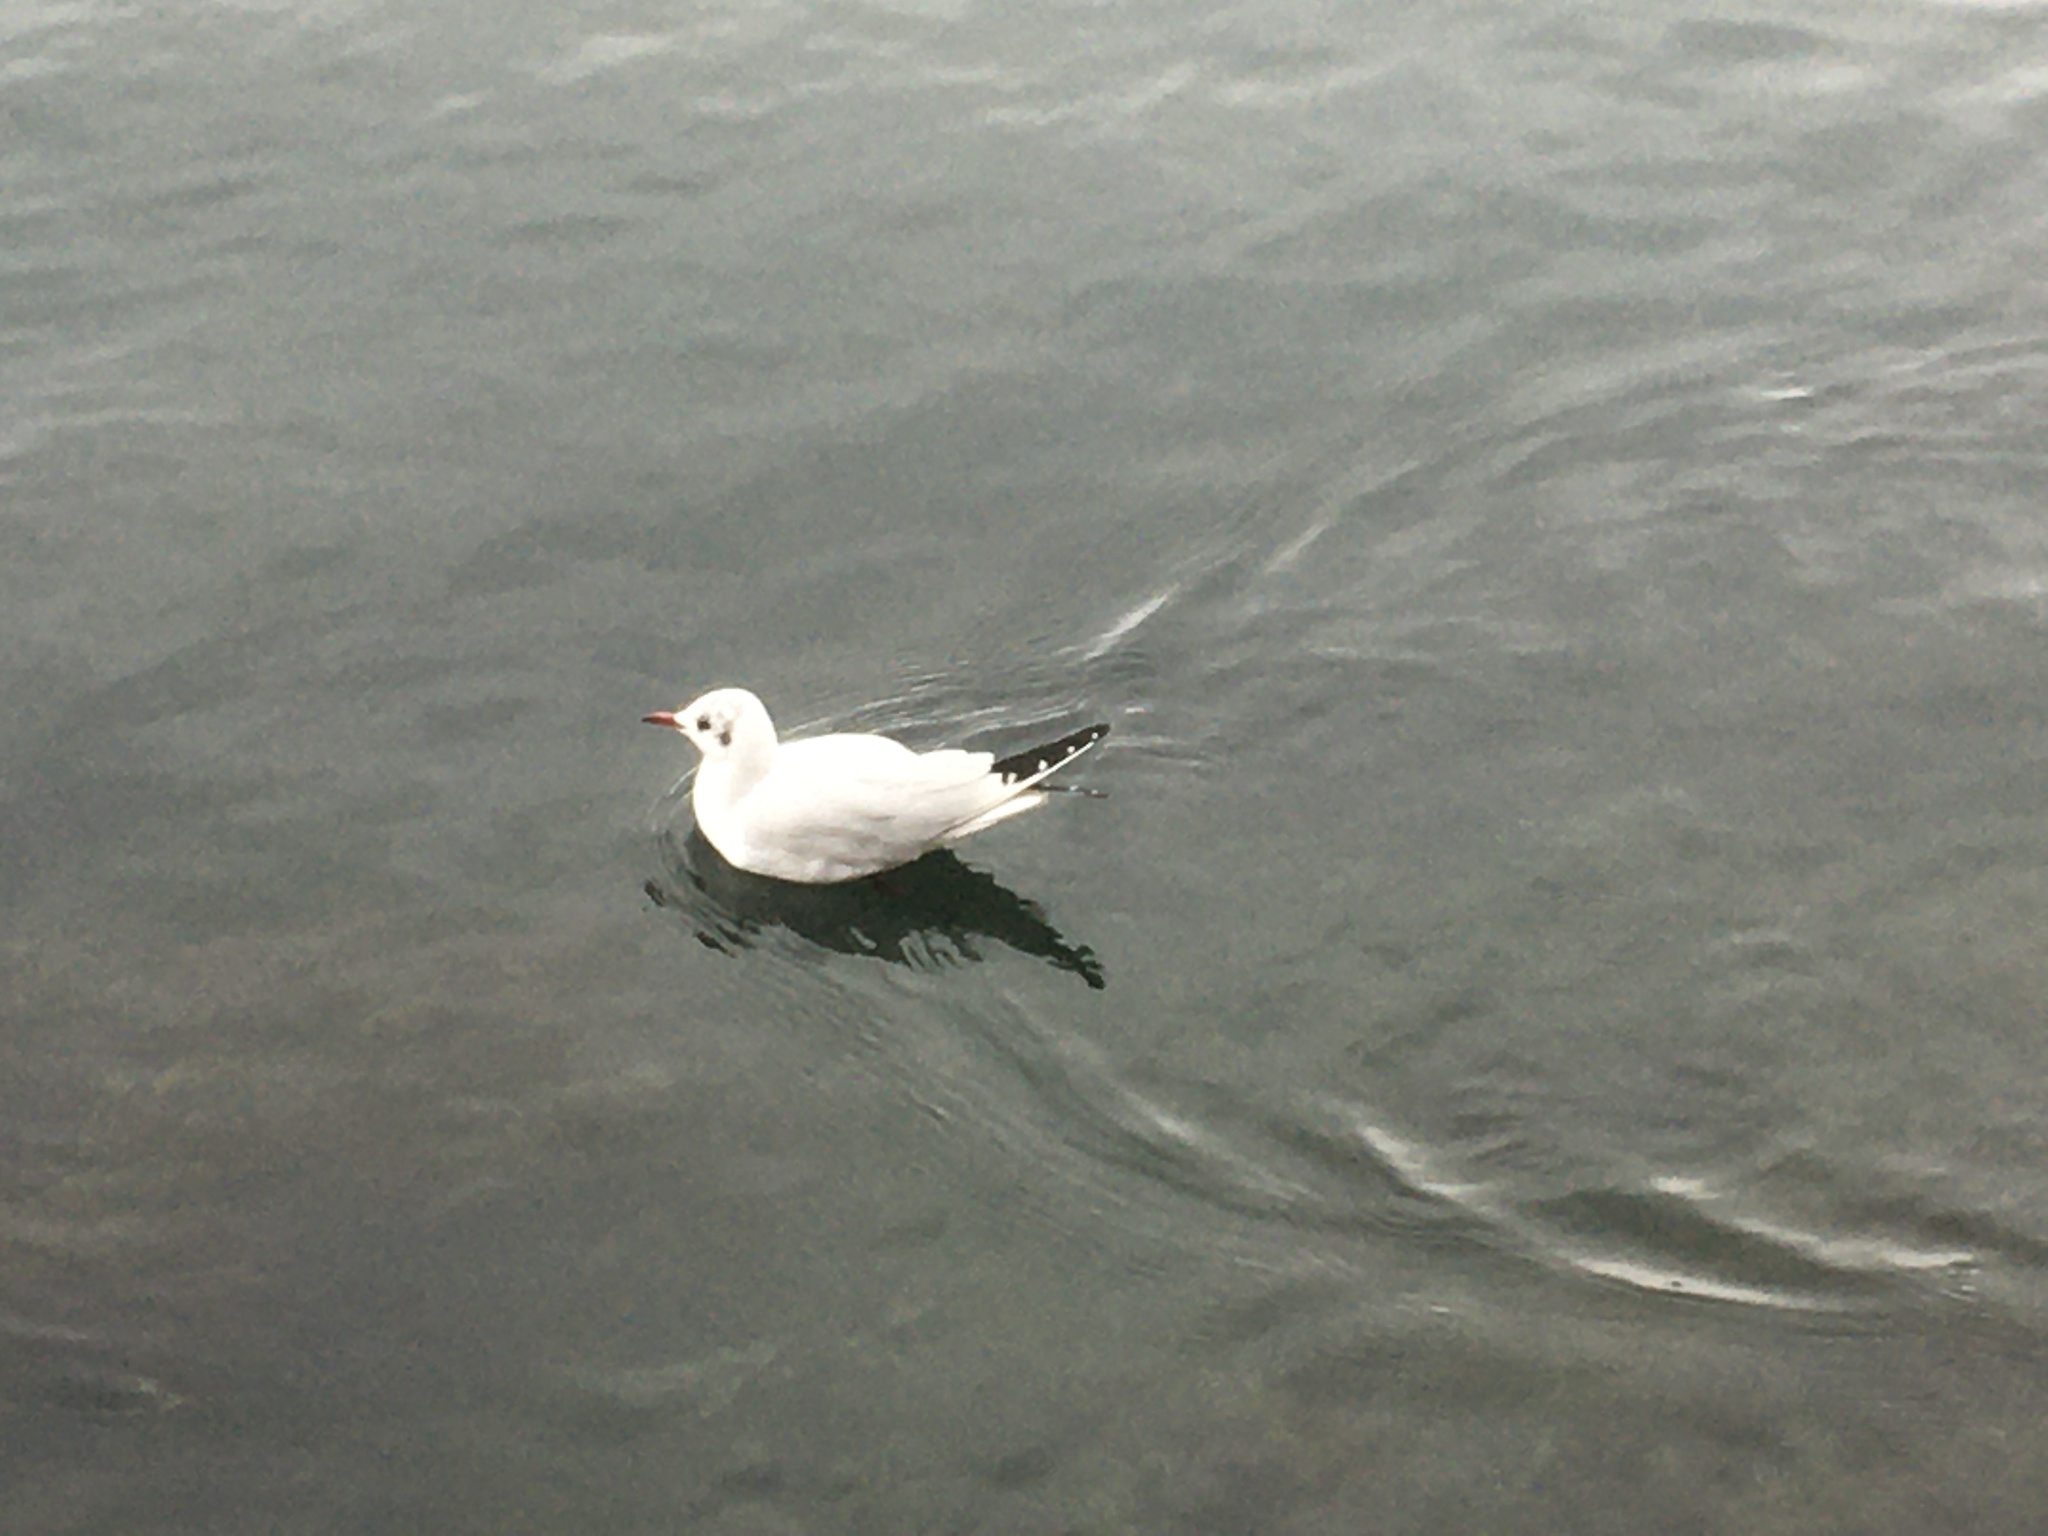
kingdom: Animalia
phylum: Chordata
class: Aves
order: Charadriiformes
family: Laridae
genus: Chroicocephalus
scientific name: Chroicocephalus ridibundus
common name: Black-headed gull
